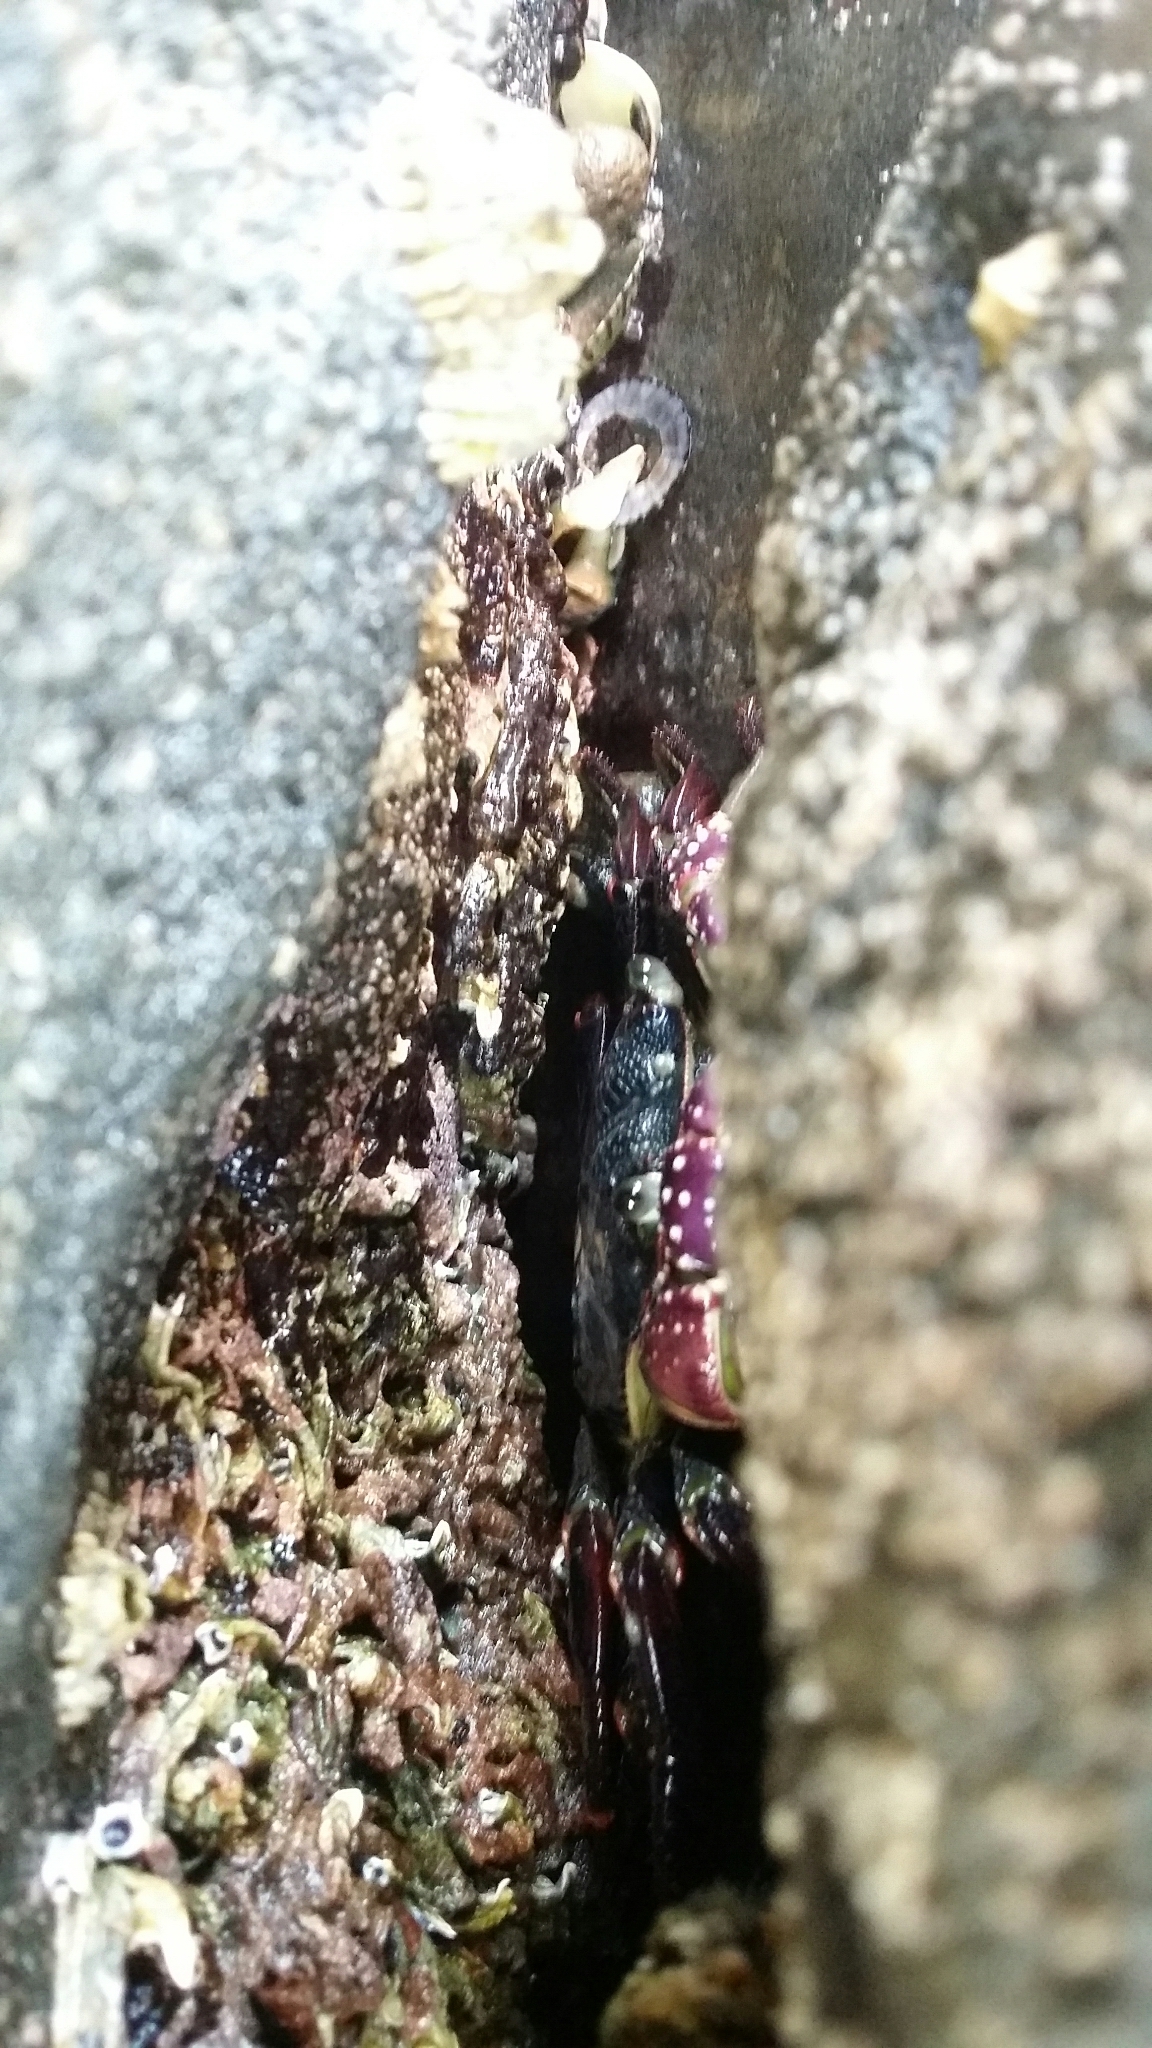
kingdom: Animalia
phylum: Arthropoda
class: Malacostraca
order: Decapoda
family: Grapsidae
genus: Leptograpsus
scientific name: Leptograpsus variegatus
